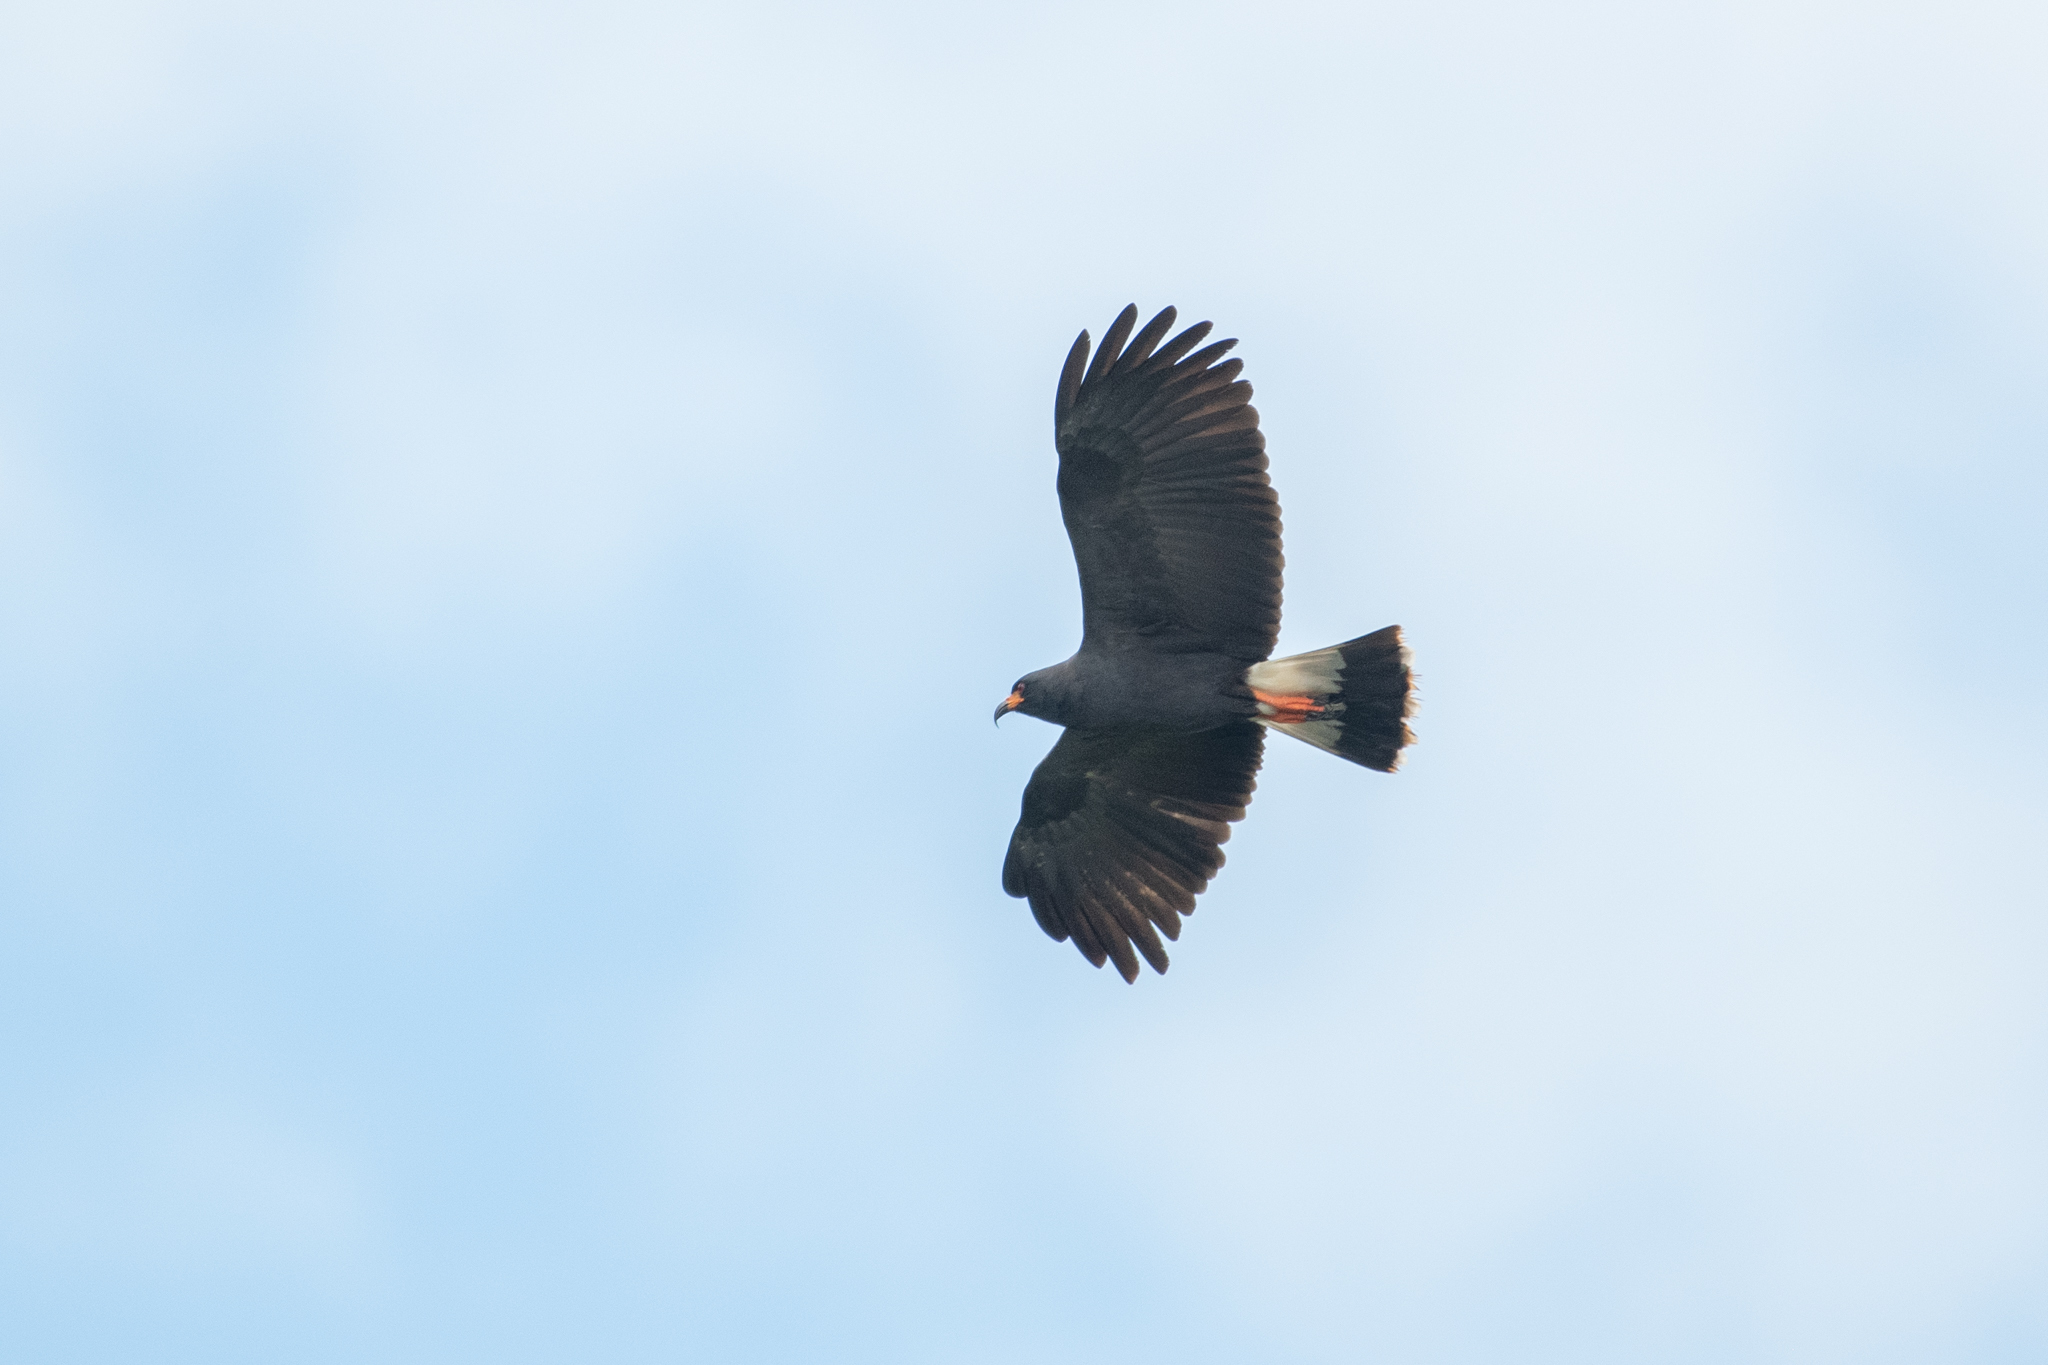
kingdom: Animalia
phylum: Chordata
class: Aves
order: Accipitriformes
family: Accipitridae
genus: Rostrhamus
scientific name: Rostrhamus sociabilis
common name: Snail kite
